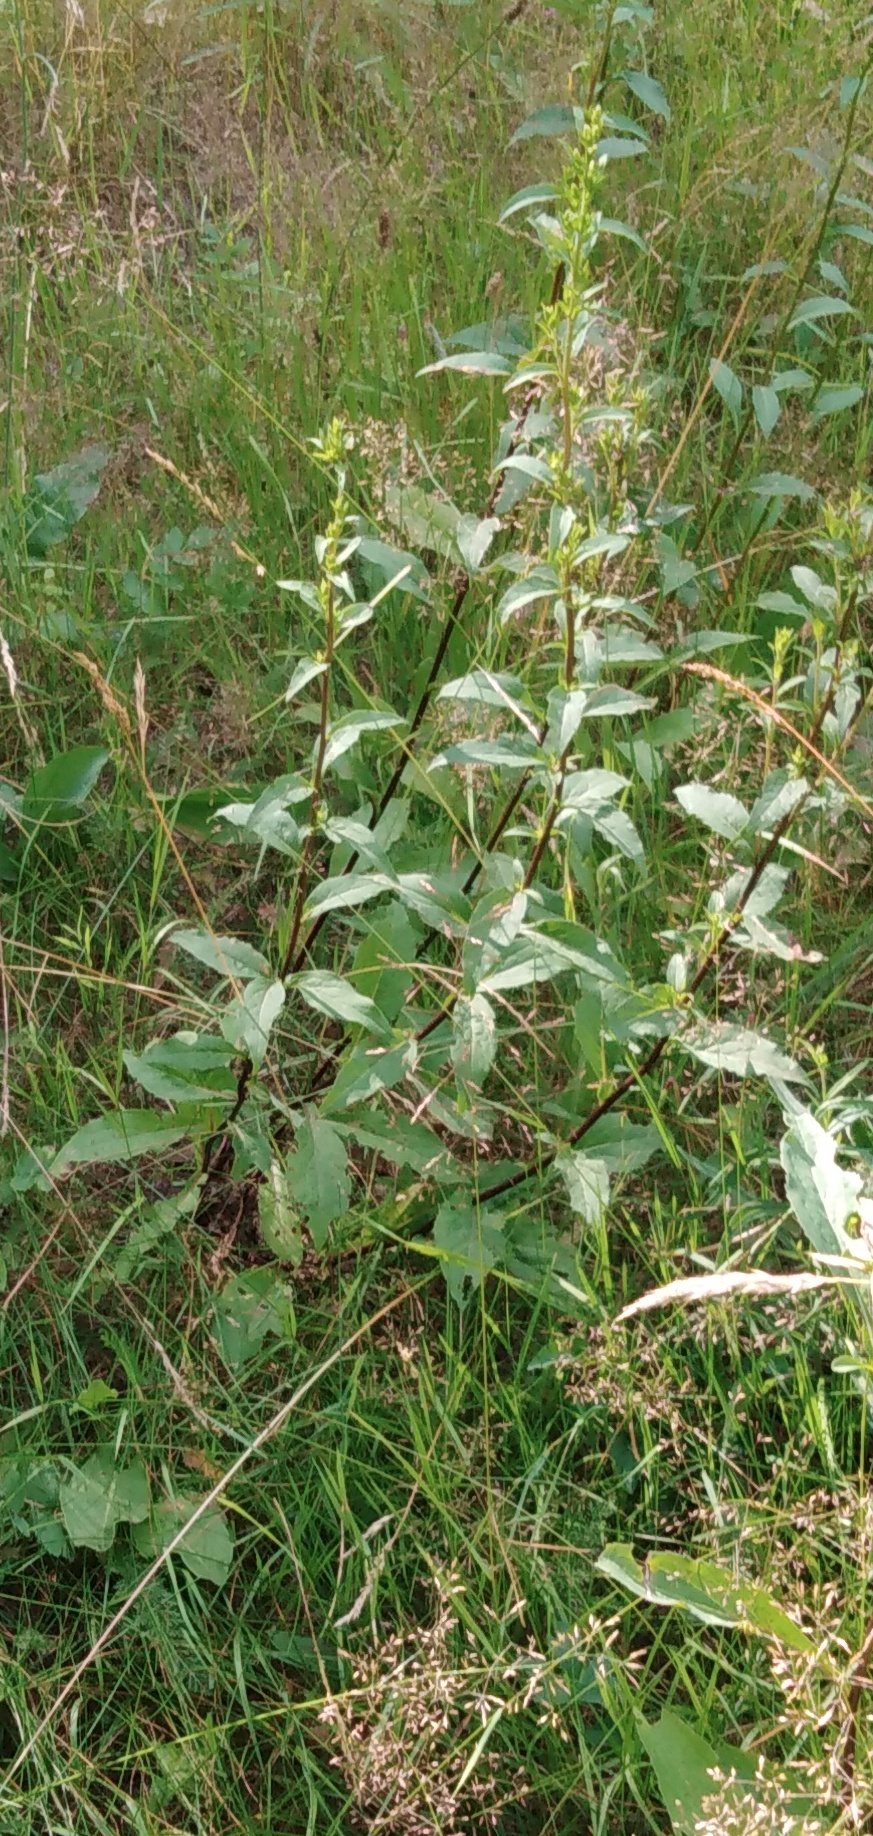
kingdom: Plantae
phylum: Tracheophyta
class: Magnoliopsida
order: Asterales
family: Asteraceae
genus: Solidago
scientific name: Solidago virgaurea
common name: Goldenrod
